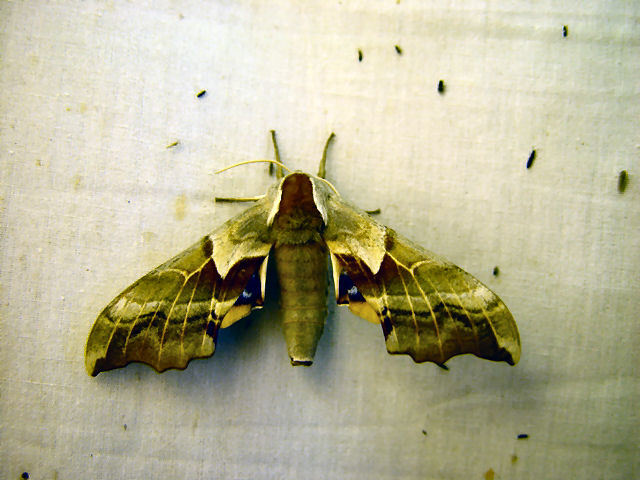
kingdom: Animalia
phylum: Arthropoda
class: Insecta
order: Lepidoptera
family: Sphingidae
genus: Smerinthus
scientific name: Smerinthus cerisyi
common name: Cerisy's sphinx moth
